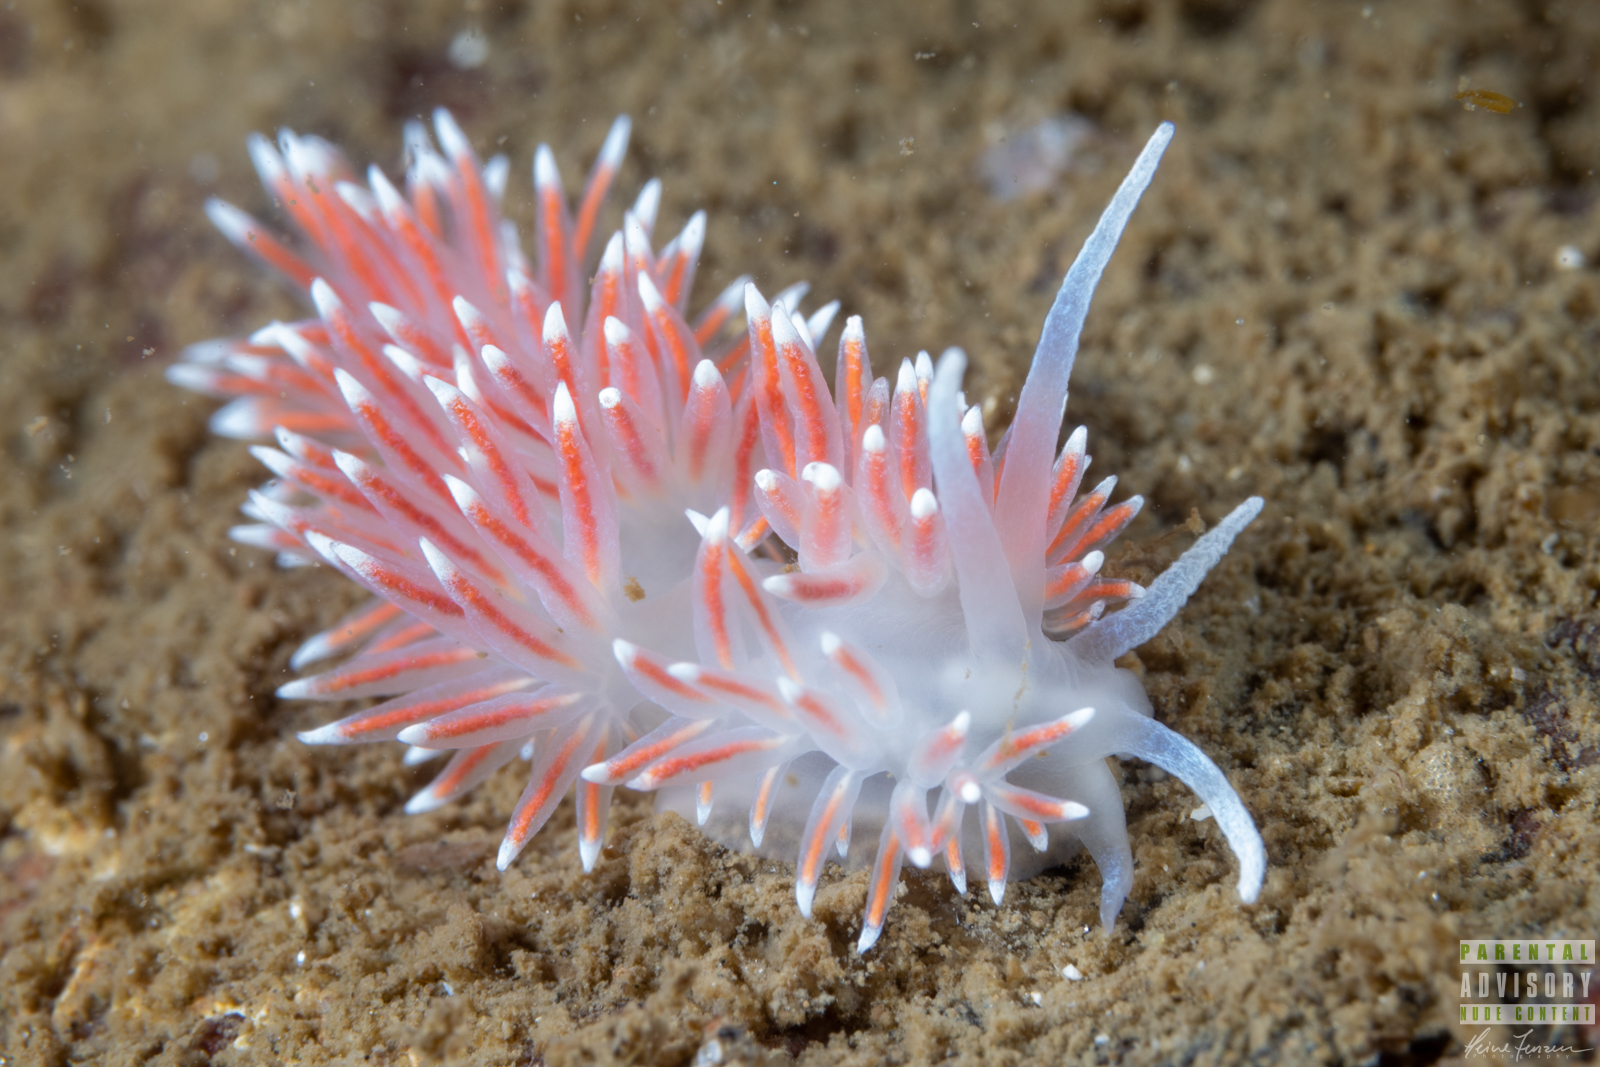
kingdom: Animalia
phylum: Mollusca
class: Gastropoda
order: Nudibranchia
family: Flabellinidae
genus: Carronella
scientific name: Carronella pellucida
